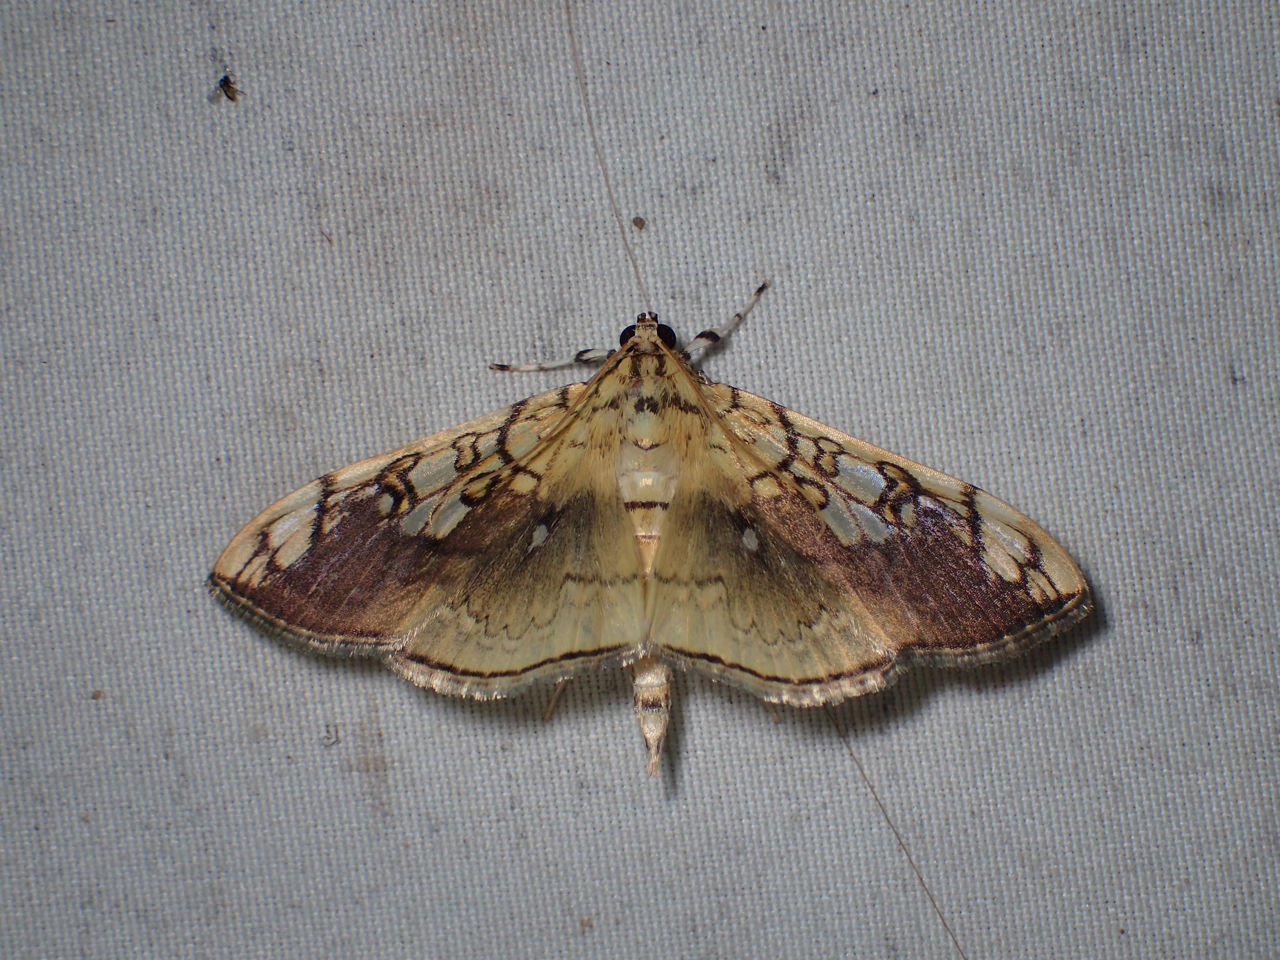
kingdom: Animalia
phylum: Arthropoda
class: Insecta
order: Lepidoptera
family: Crambidae
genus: Pantographa
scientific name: Pantographa limata
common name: Basswood leafroller moth
